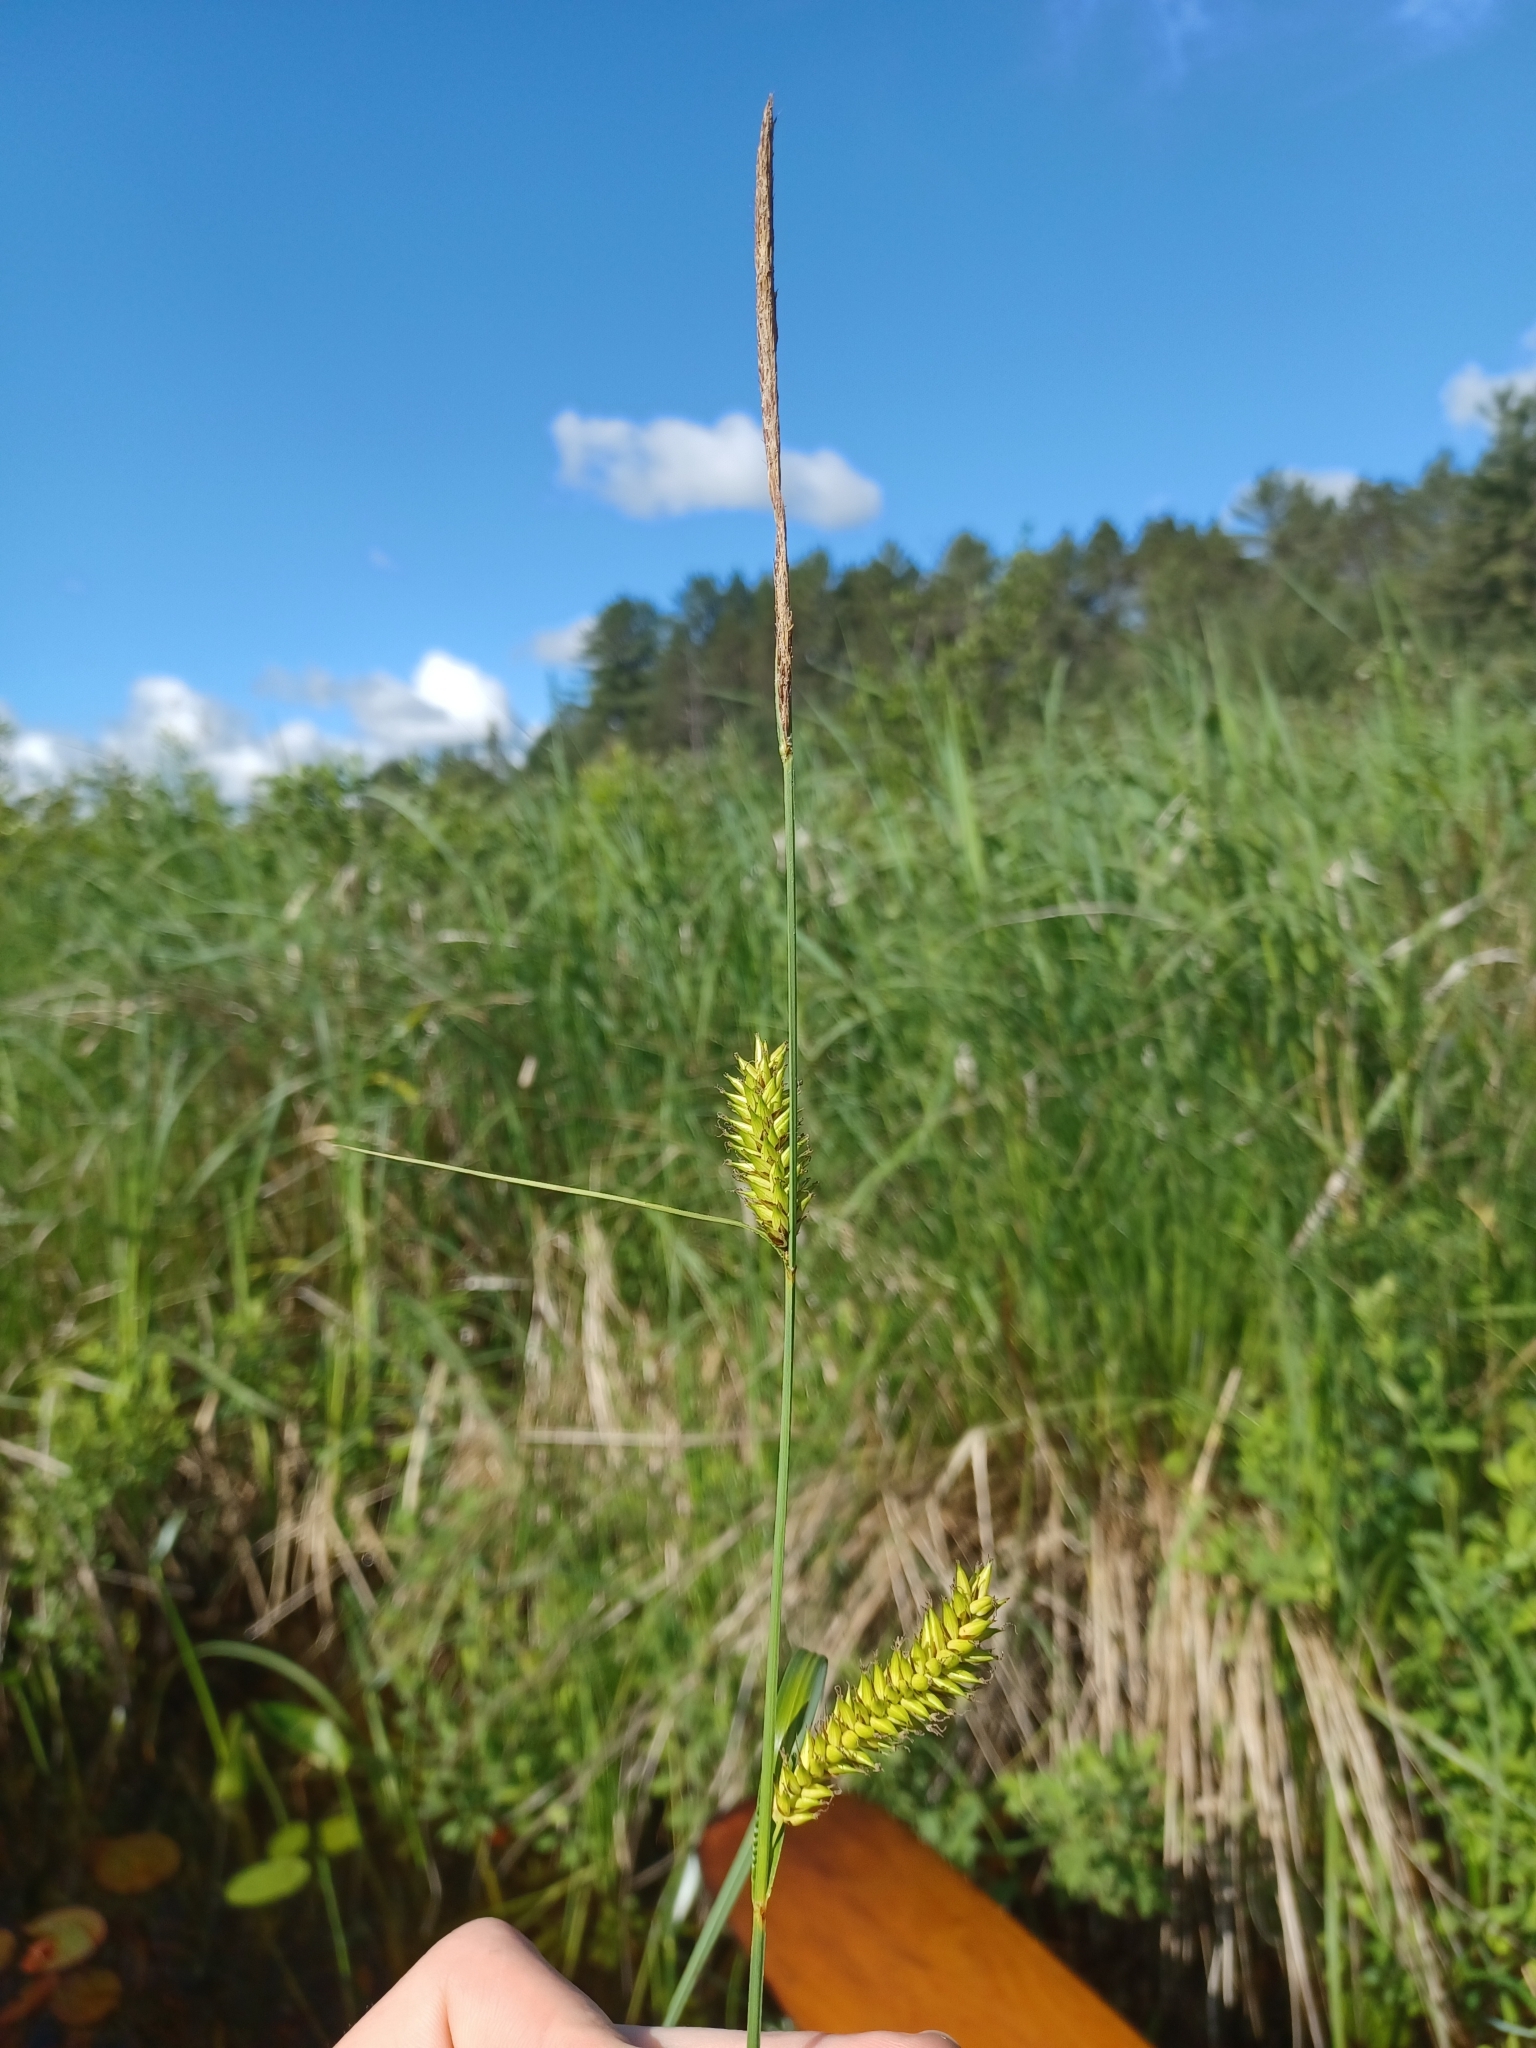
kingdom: Plantae
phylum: Tracheophyta
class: Liliopsida
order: Poales
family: Cyperaceae
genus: Carex
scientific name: Carex lacustris
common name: Common lake sedge
